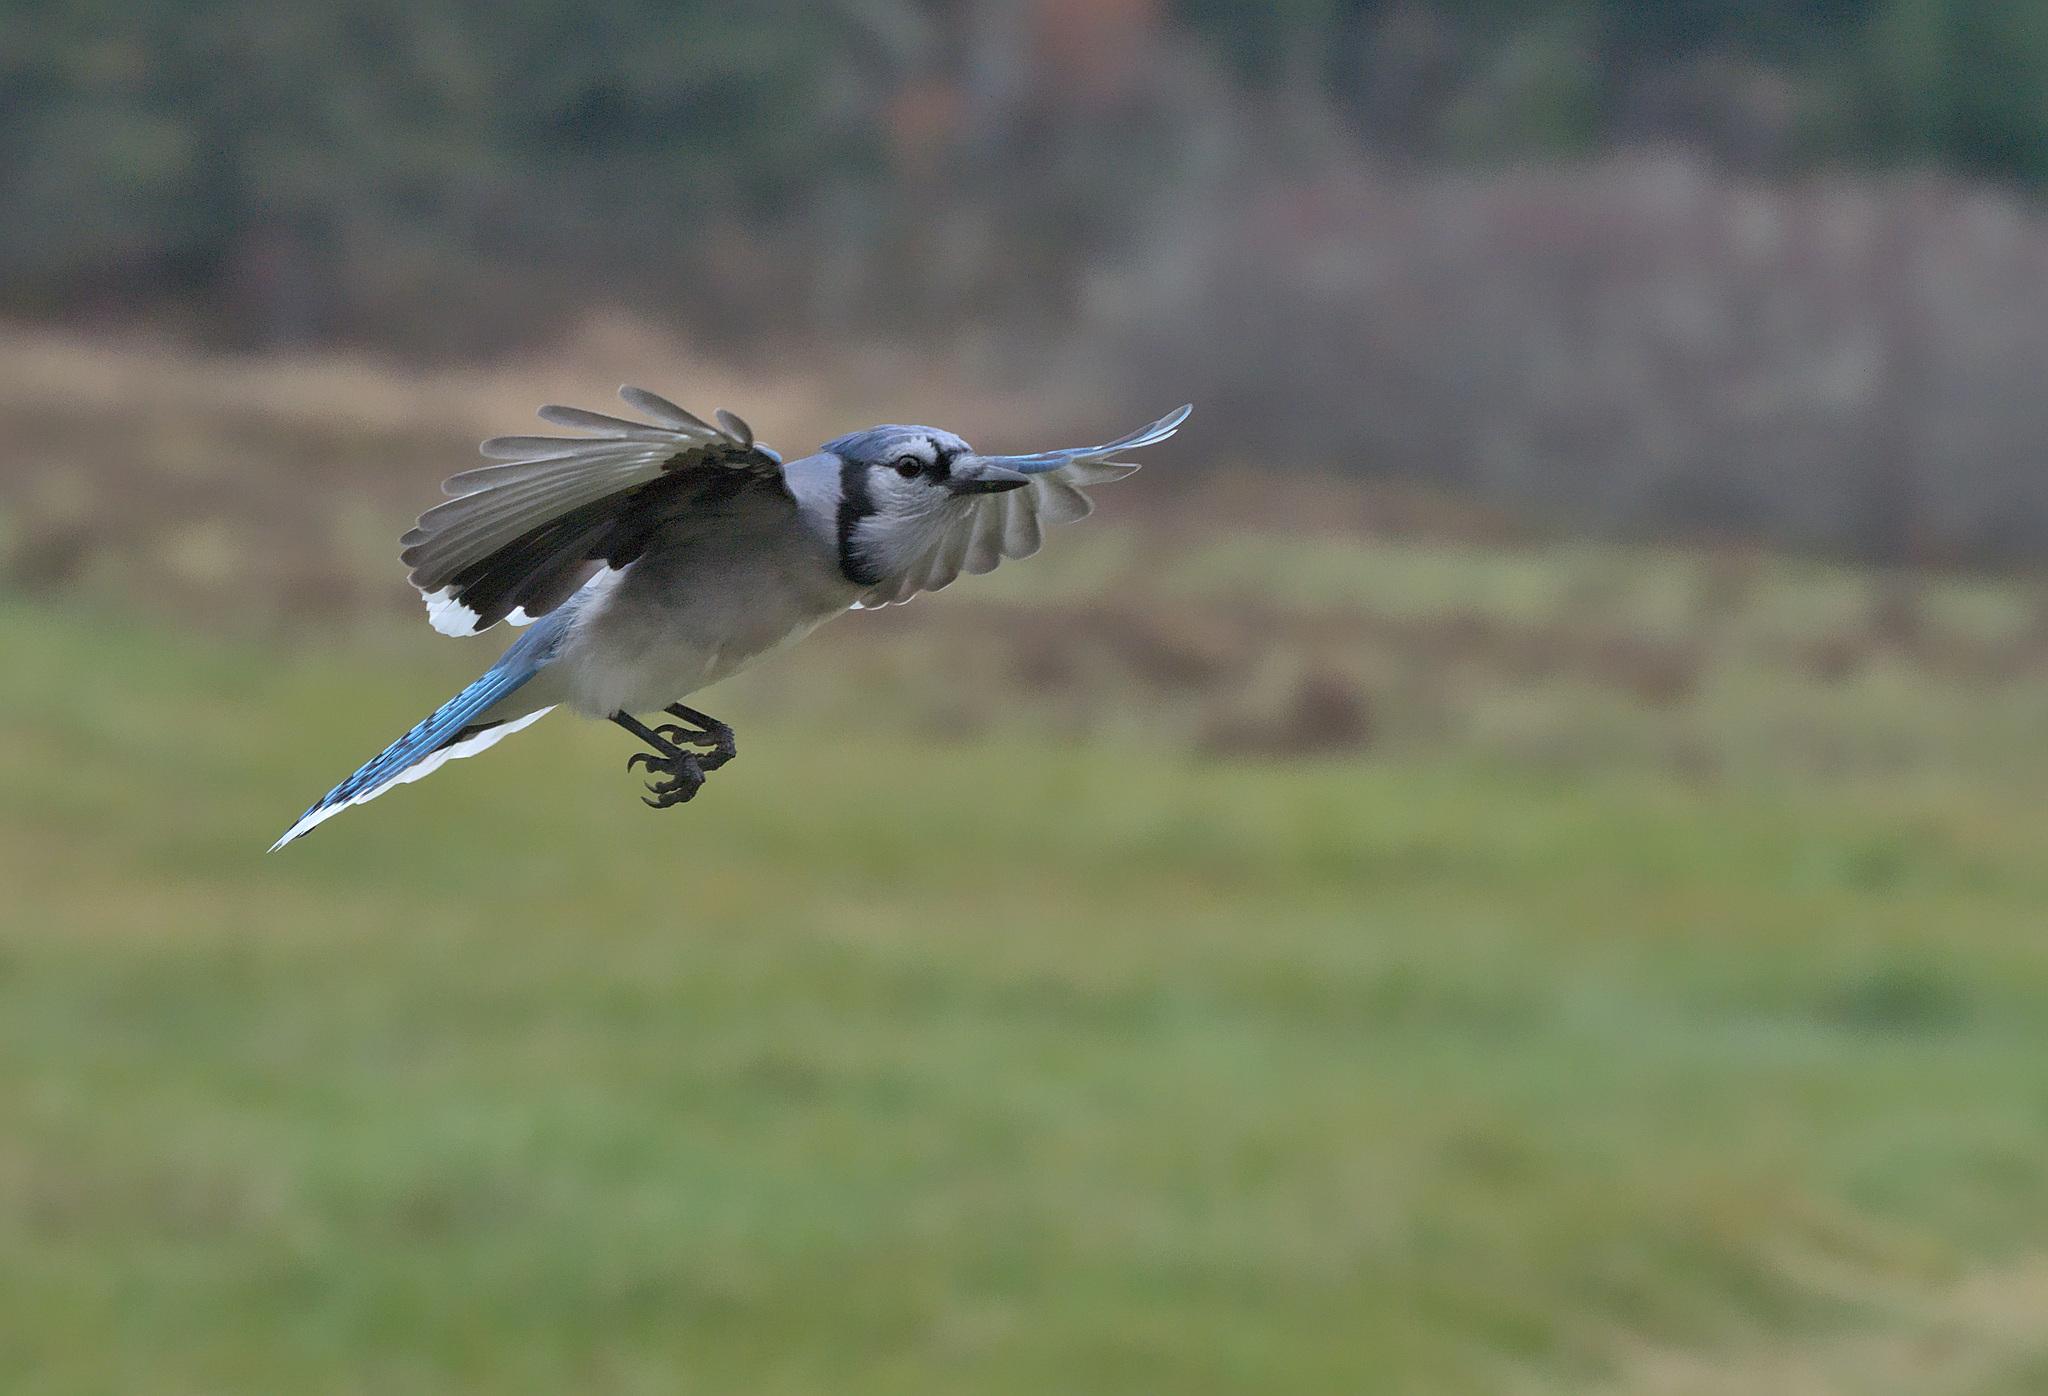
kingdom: Animalia
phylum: Chordata
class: Aves
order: Passeriformes
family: Corvidae
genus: Cyanocitta
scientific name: Cyanocitta cristata
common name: Blue jay
